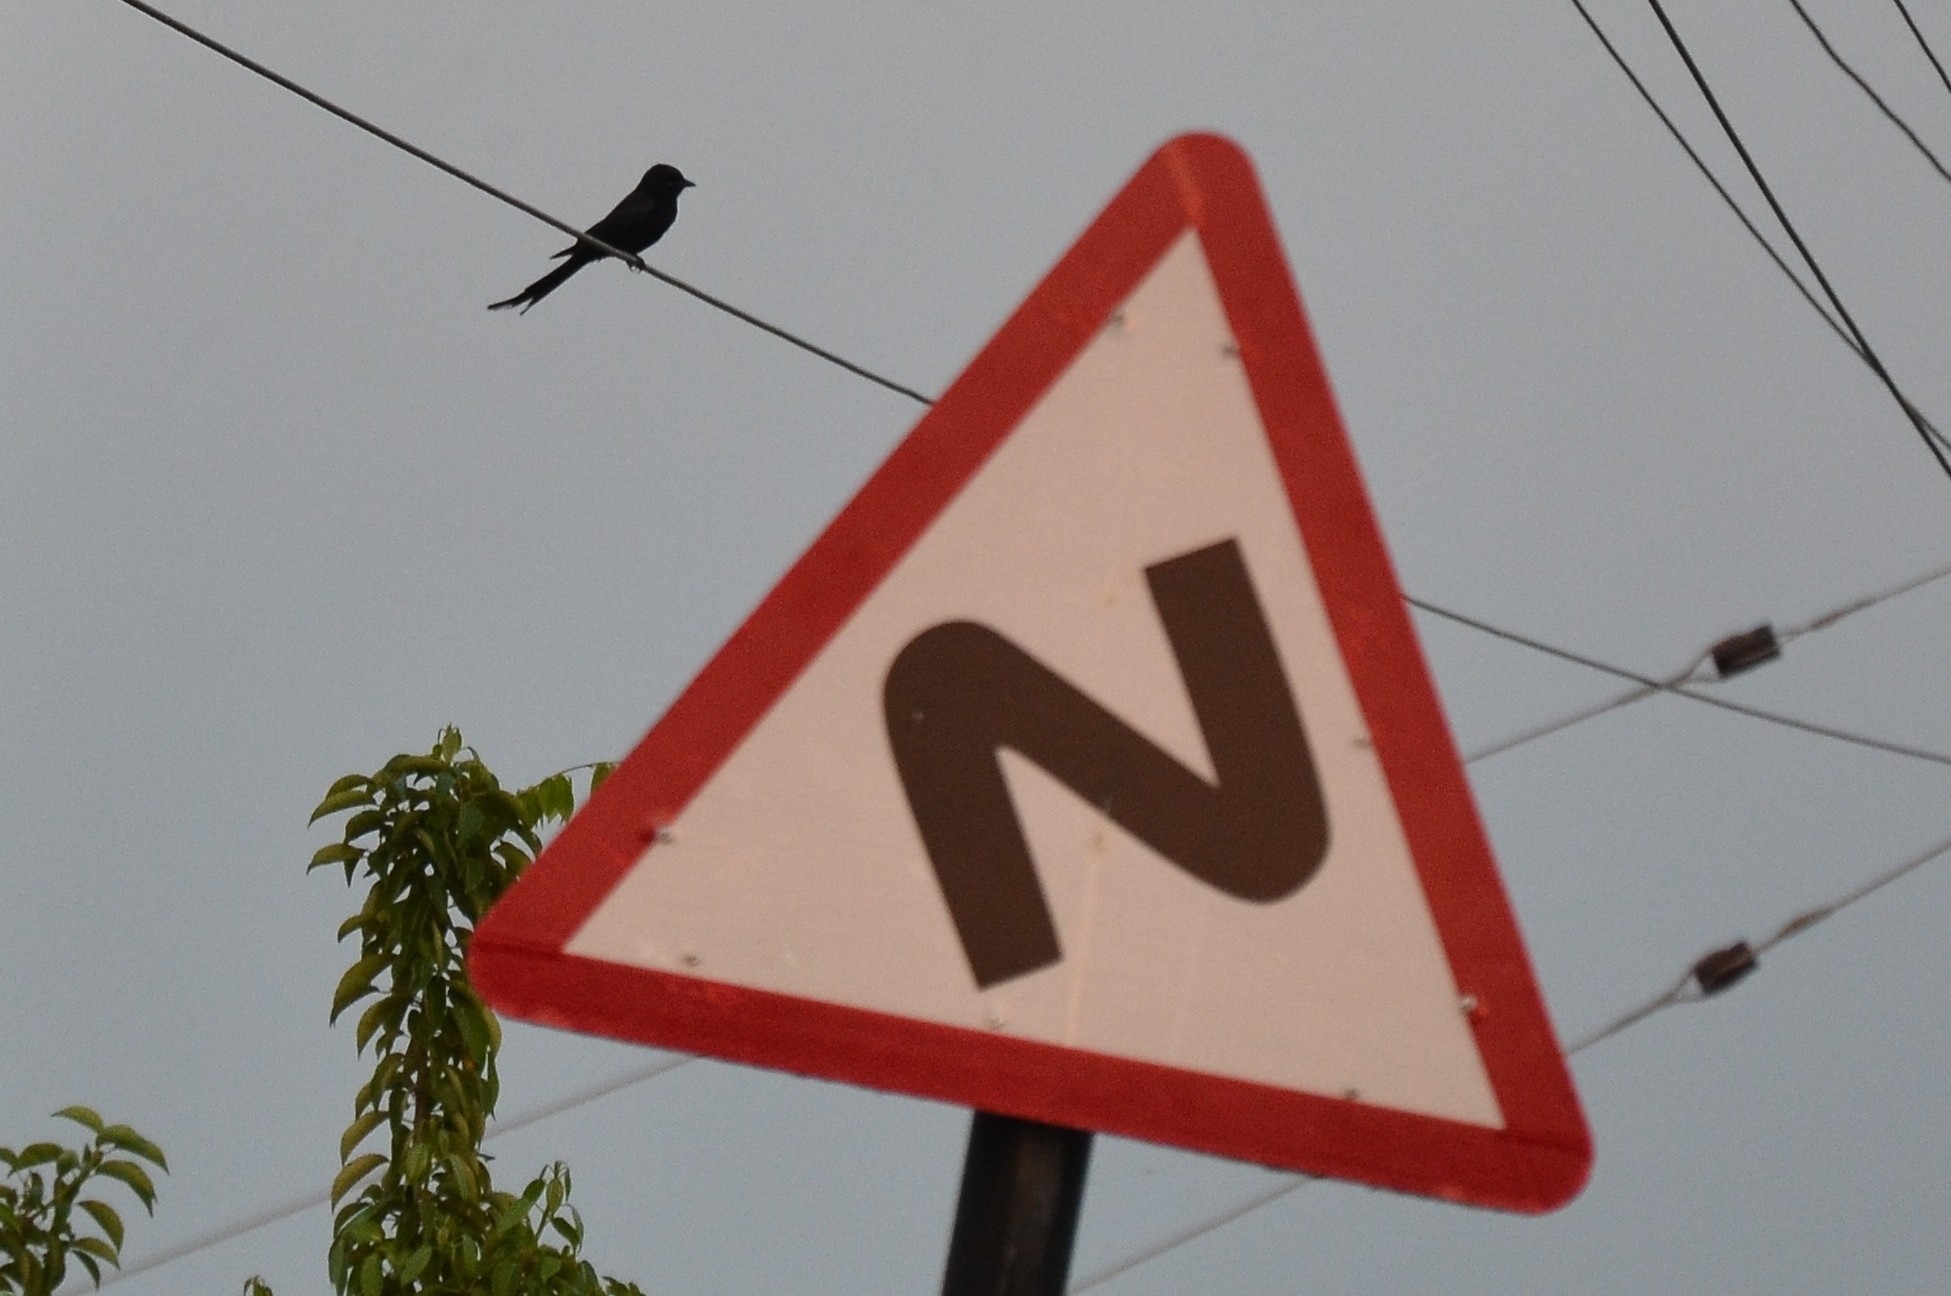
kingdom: Animalia
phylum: Chordata
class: Aves
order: Passeriformes
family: Dicruridae
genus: Dicrurus
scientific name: Dicrurus macrocercus
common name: Black drongo
